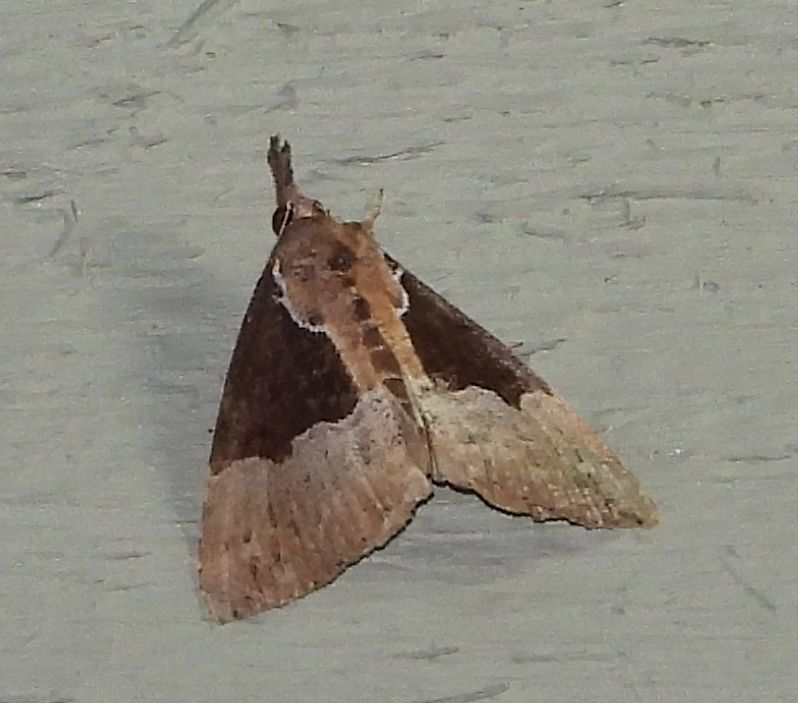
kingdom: Animalia
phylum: Arthropoda
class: Insecta
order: Lepidoptera
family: Erebidae
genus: Hypena
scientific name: Hypena bijugalis
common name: Dimorphic bomolocha moth
